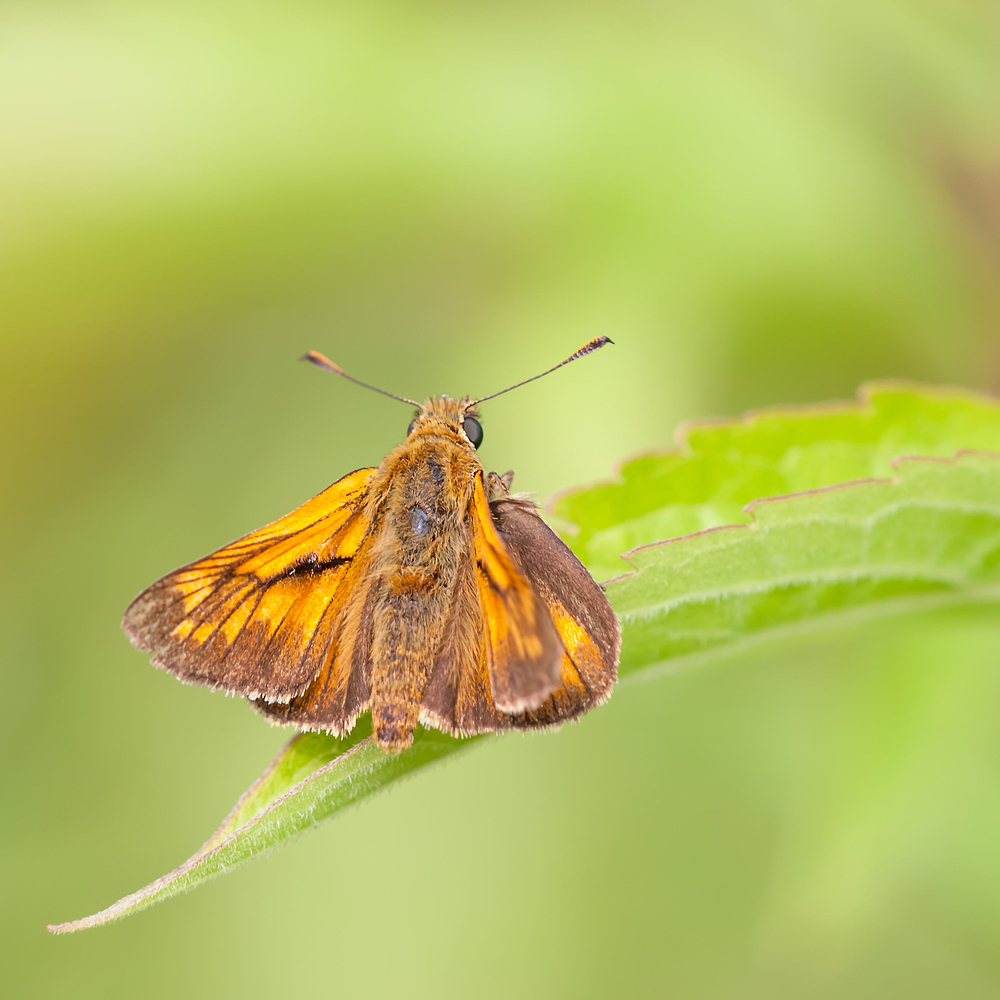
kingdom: Animalia
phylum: Arthropoda
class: Insecta
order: Lepidoptera
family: Hesperiidae
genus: Ochlodes
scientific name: Ochlodes venata
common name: Large skipper
